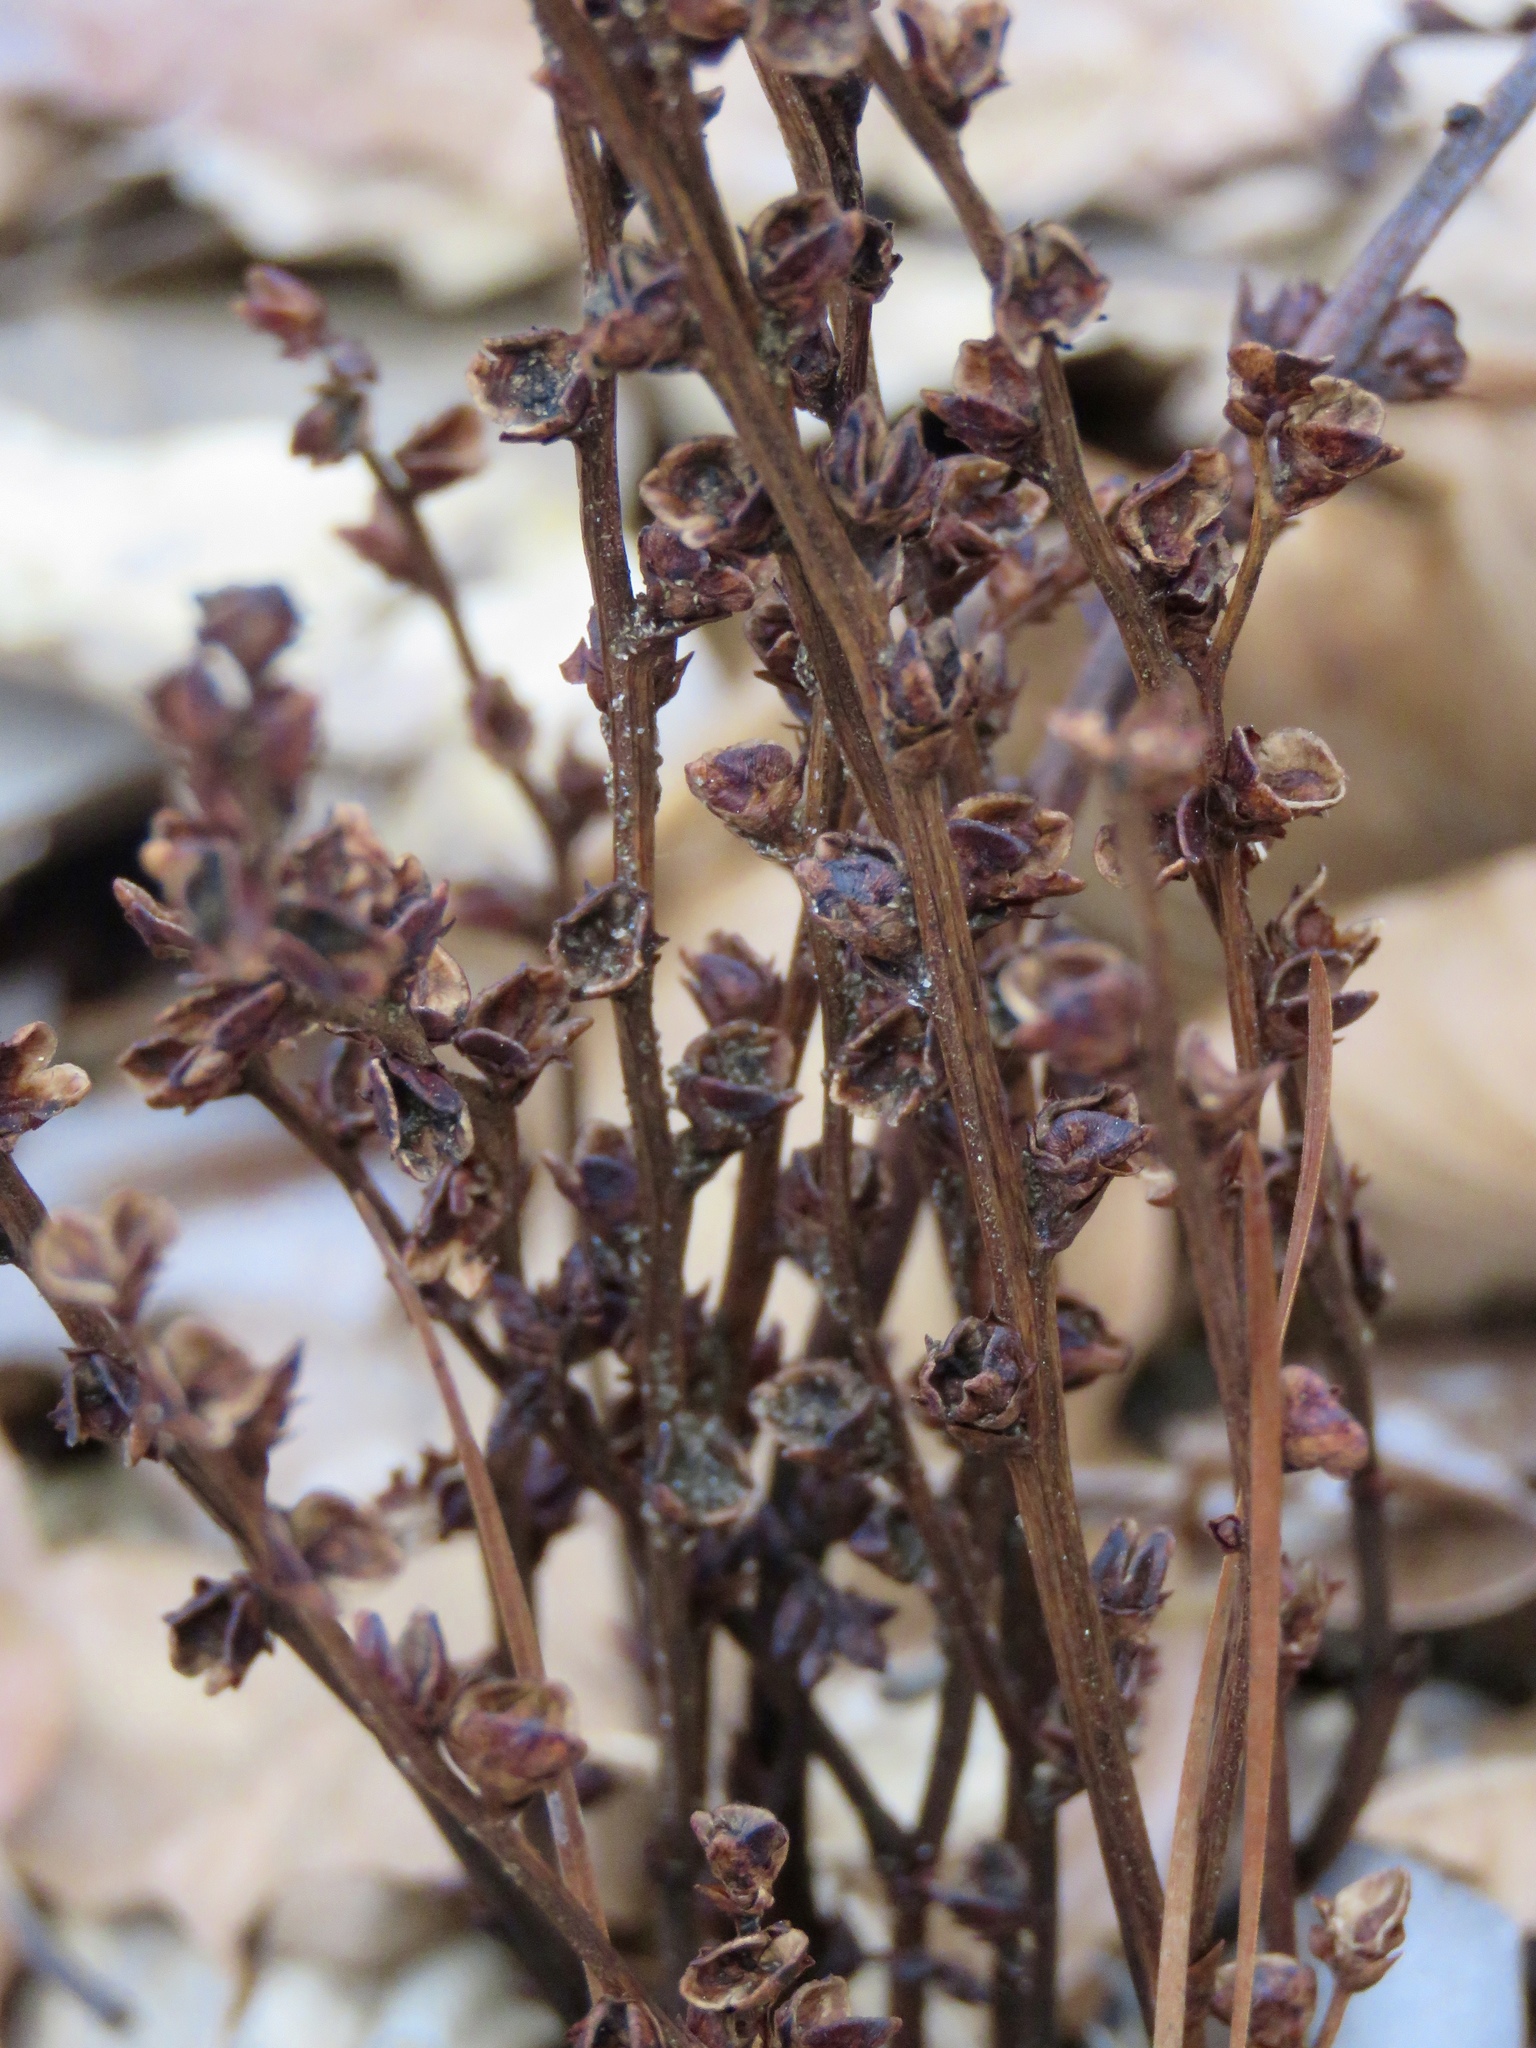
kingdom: Plantae
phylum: Tracheophyta
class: Magnoliopsida
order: Lamiales
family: Orobanchaceae
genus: Epifagus
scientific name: Epifagus virginiana
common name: Beechdrops
